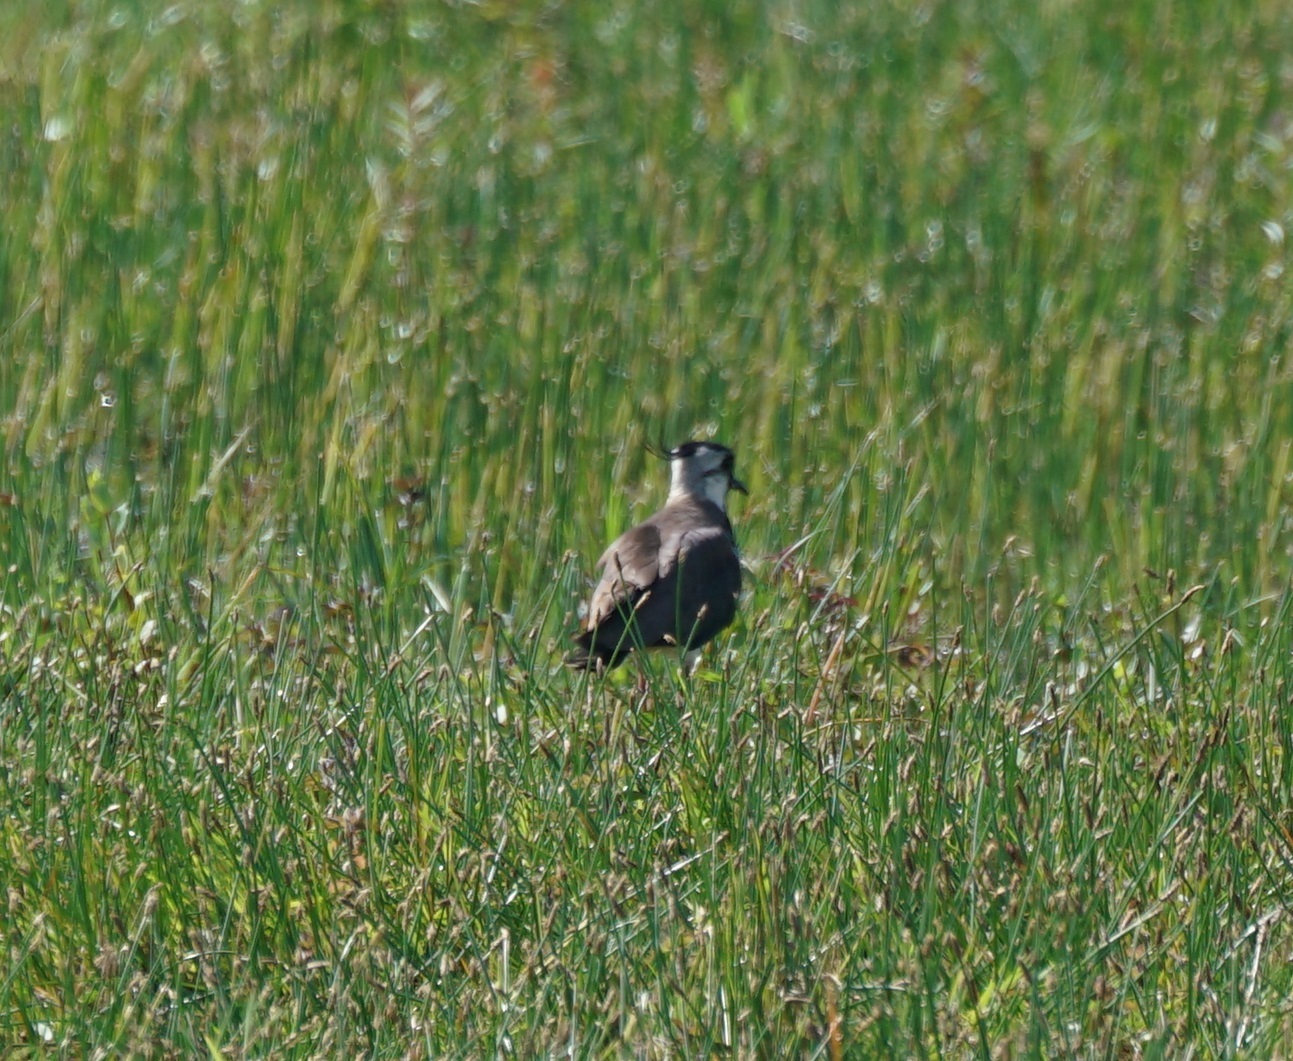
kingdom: Animalia
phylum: Chordata
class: Aves
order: Charadriiformes
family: Charadriidae
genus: Vanellus
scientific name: Vanellus vanellus
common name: Northern lapwing
